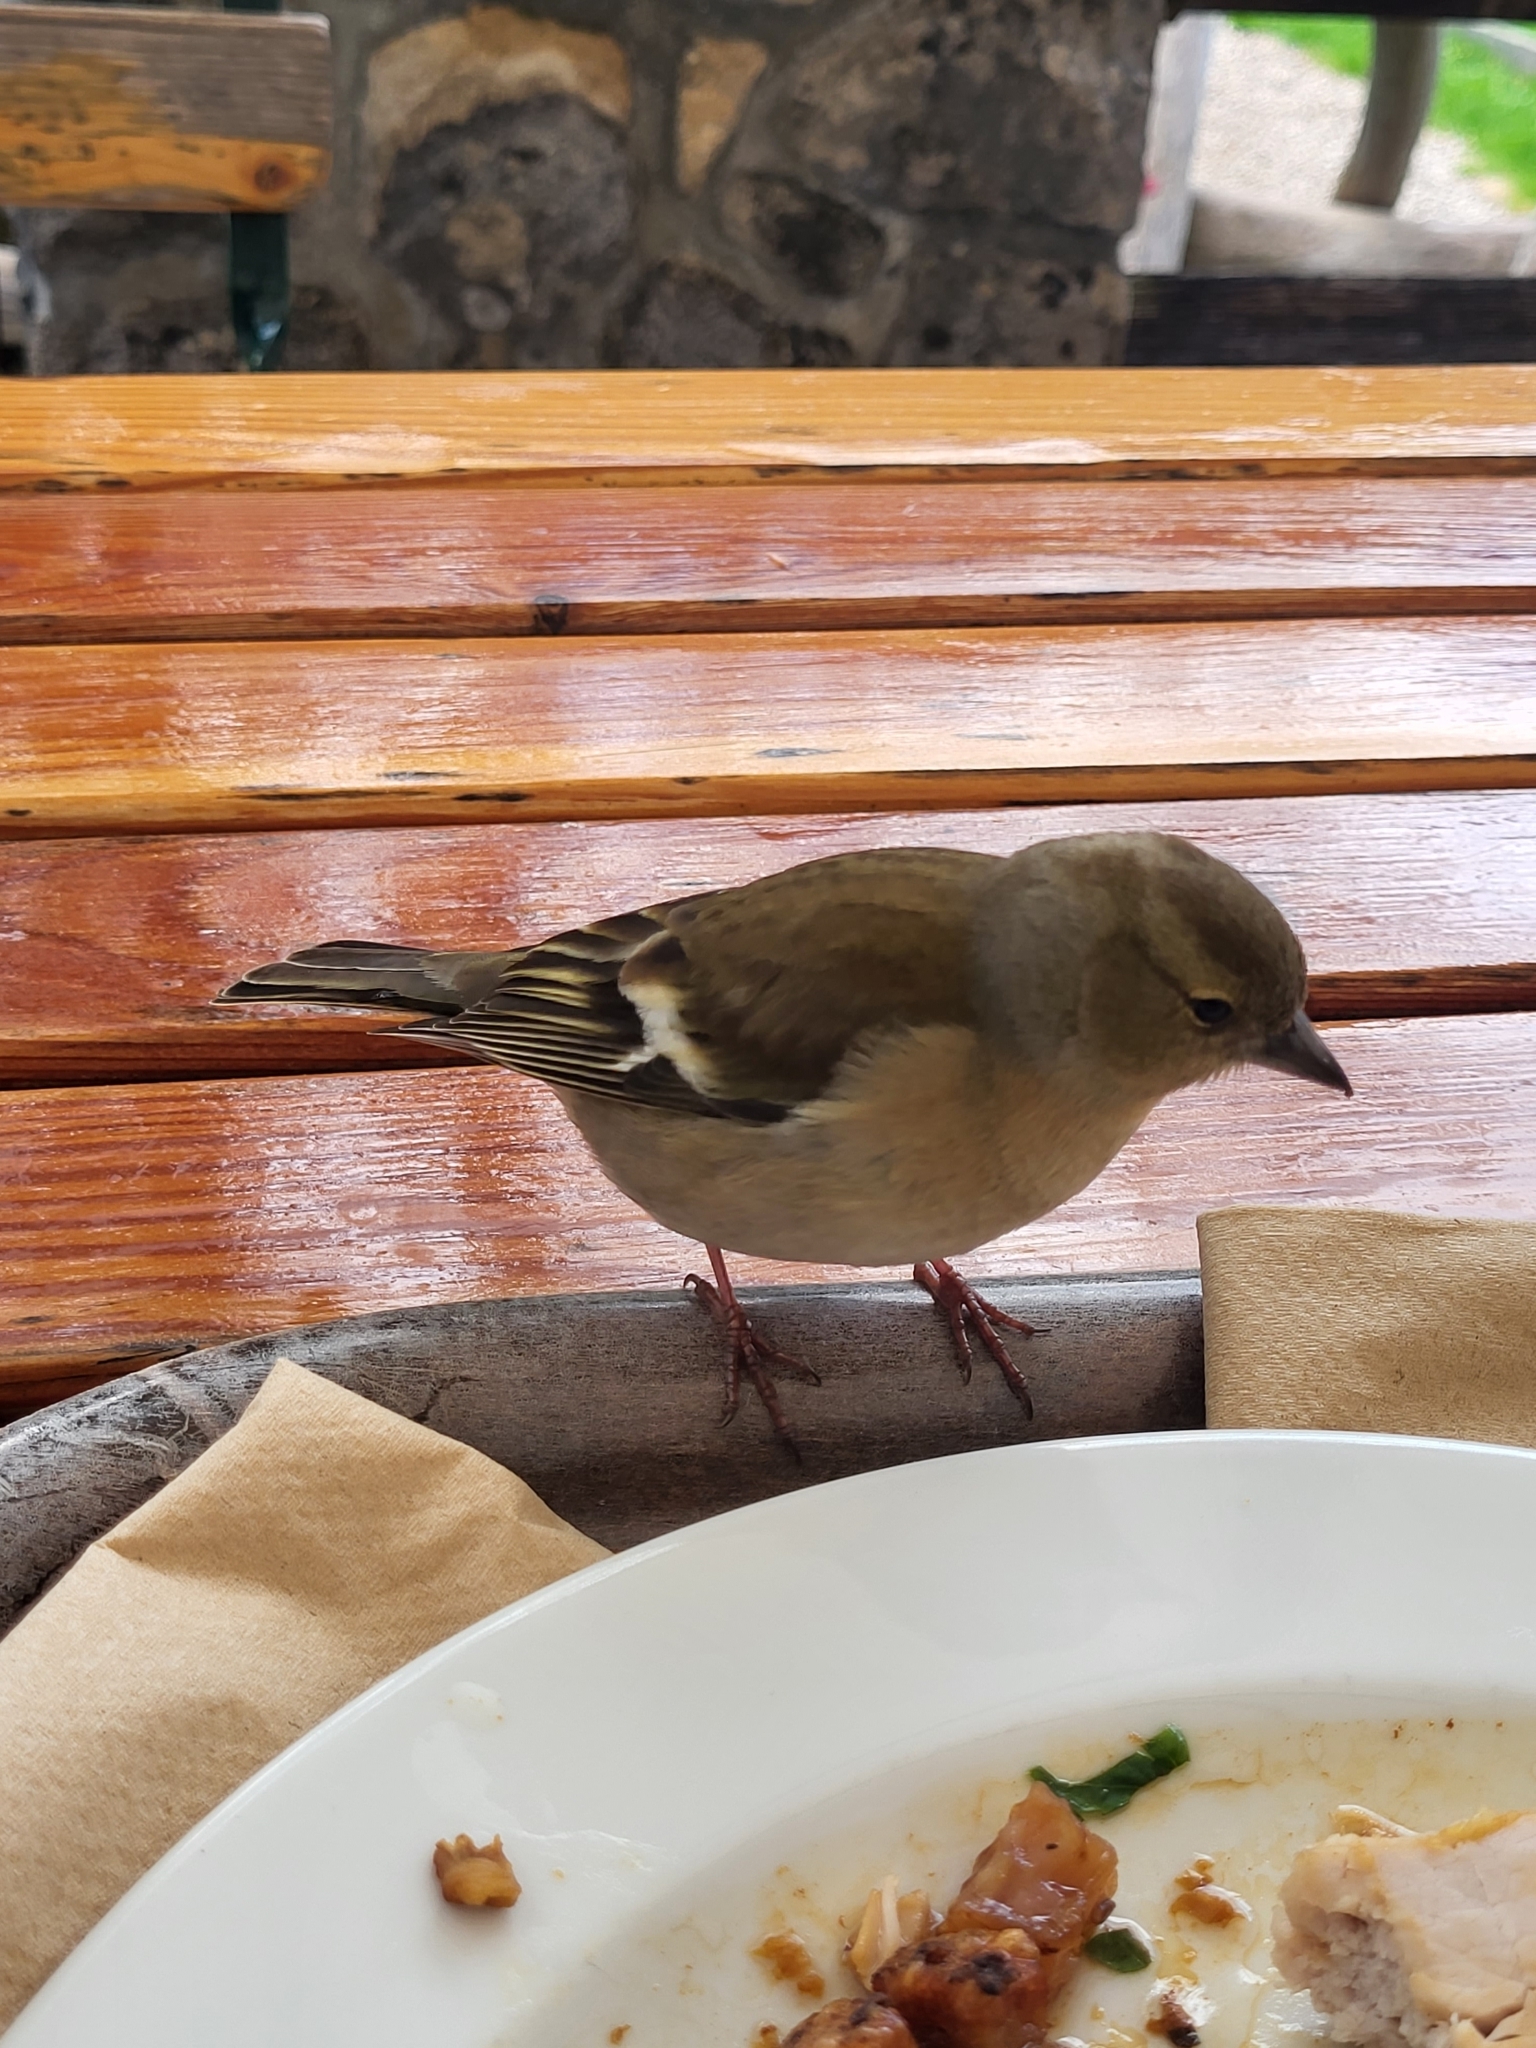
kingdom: Animalia
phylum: Chordata
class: Aves
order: Passeriformes
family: Fringillidae
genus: Fringilla
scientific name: Fringilla coelebs
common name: Common chaffinch
